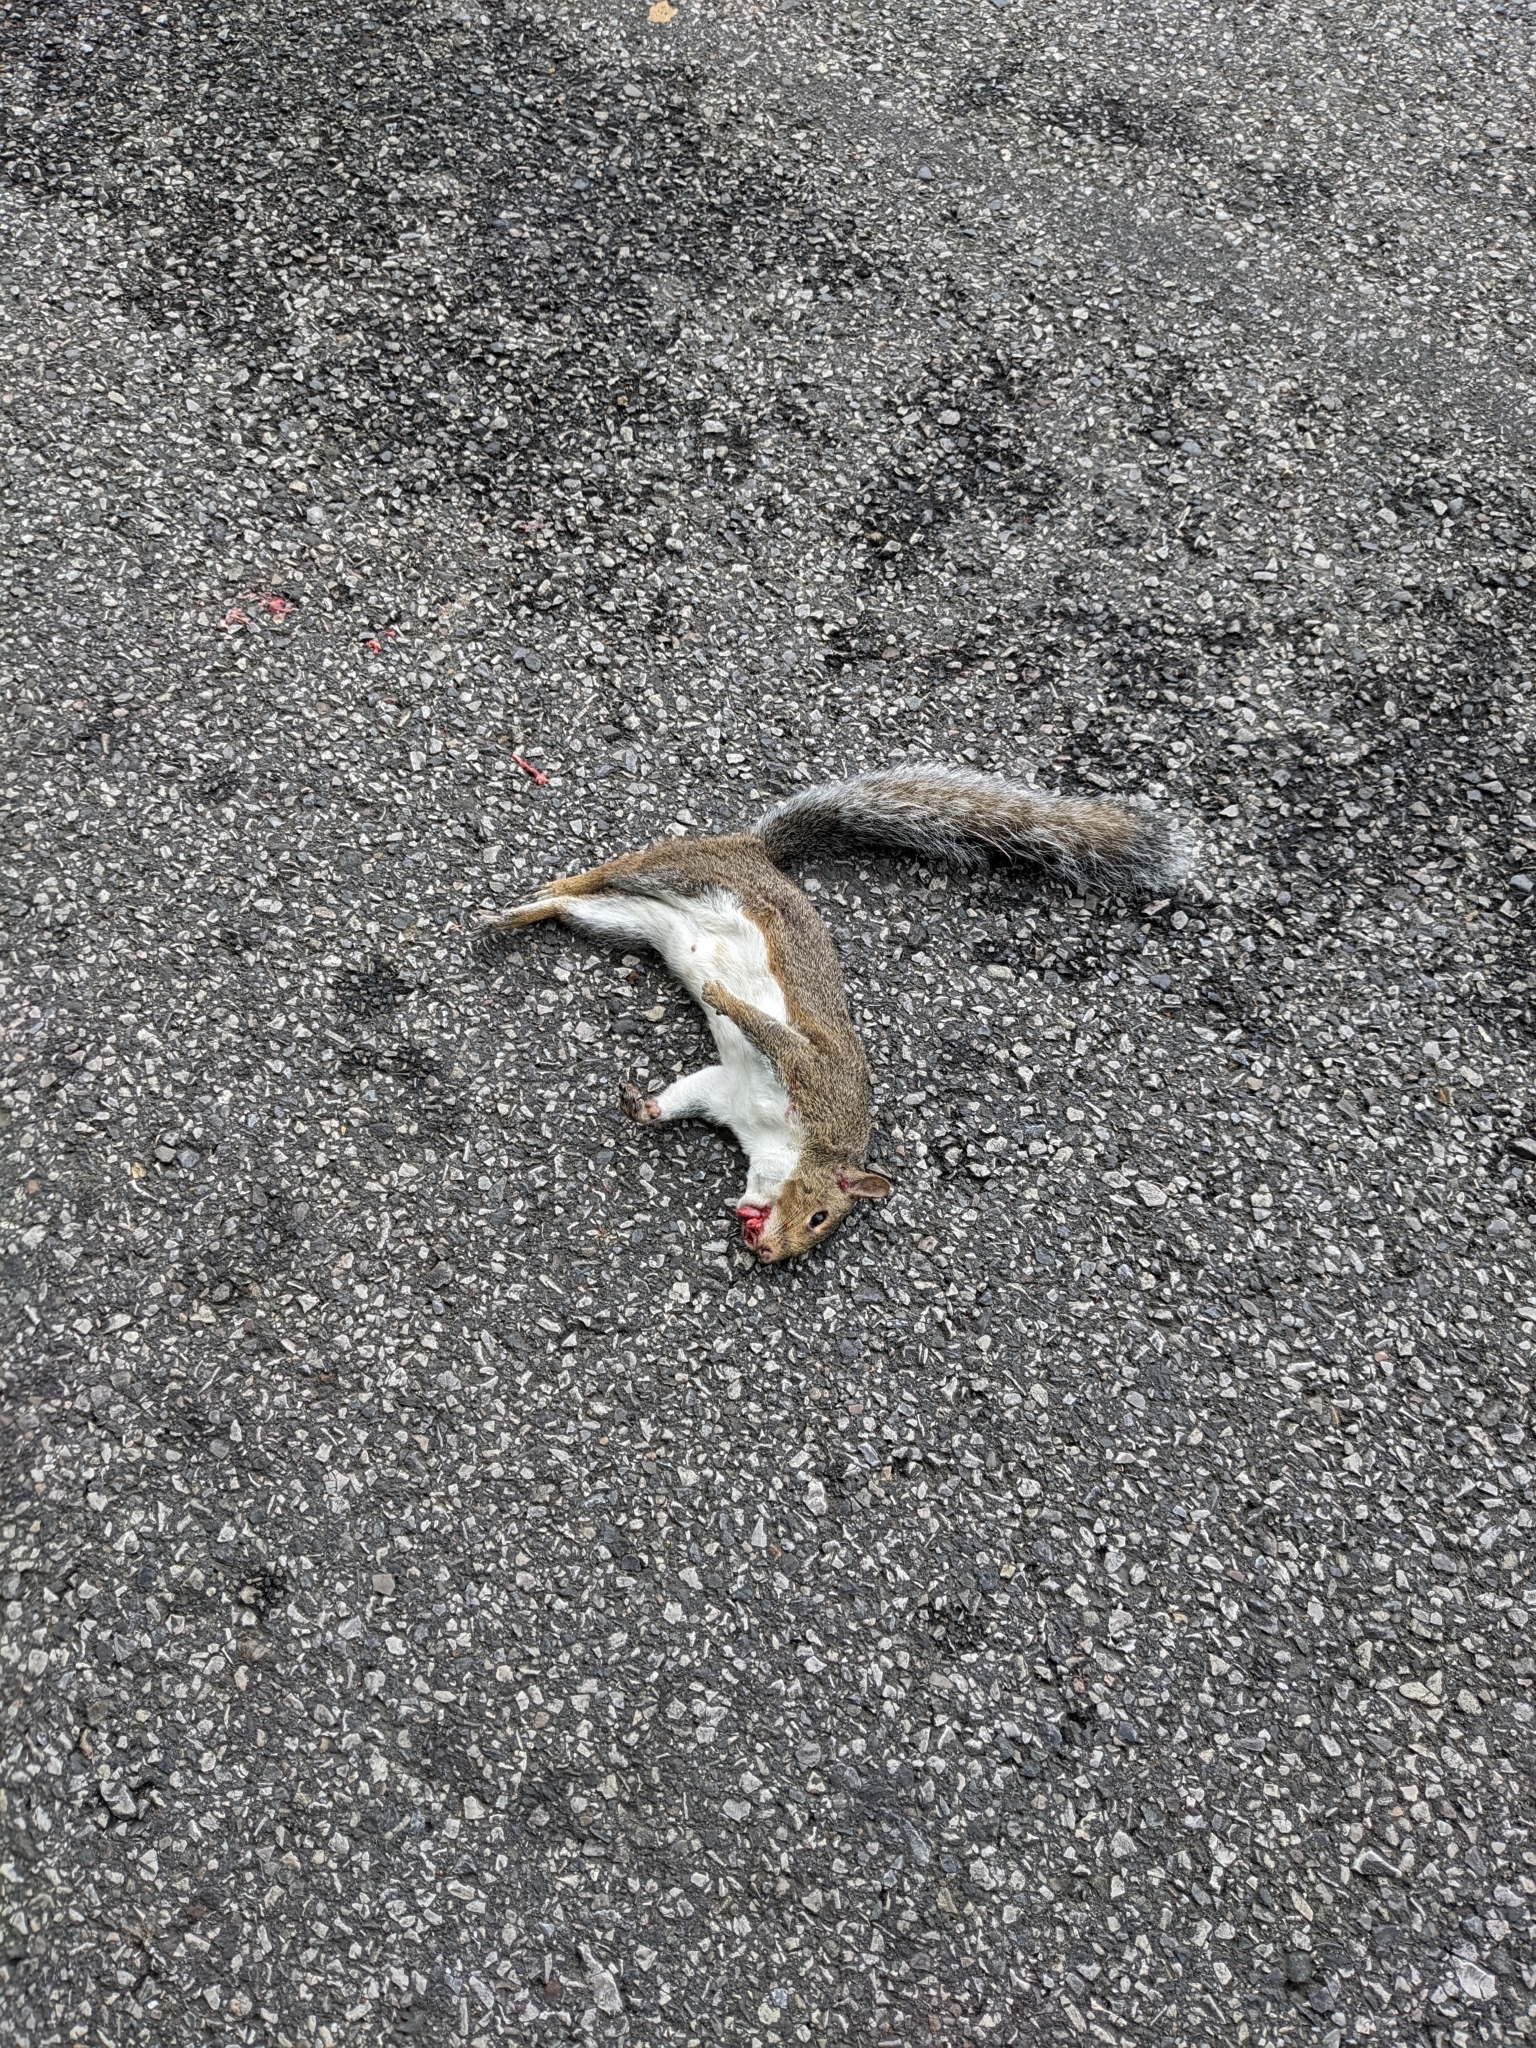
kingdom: Animalia
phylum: Chordata
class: Mammalia
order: Rodentia
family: Sciuridae
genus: Sciurus
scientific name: Sciurus carolinensis
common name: Eastern gray squirrel
